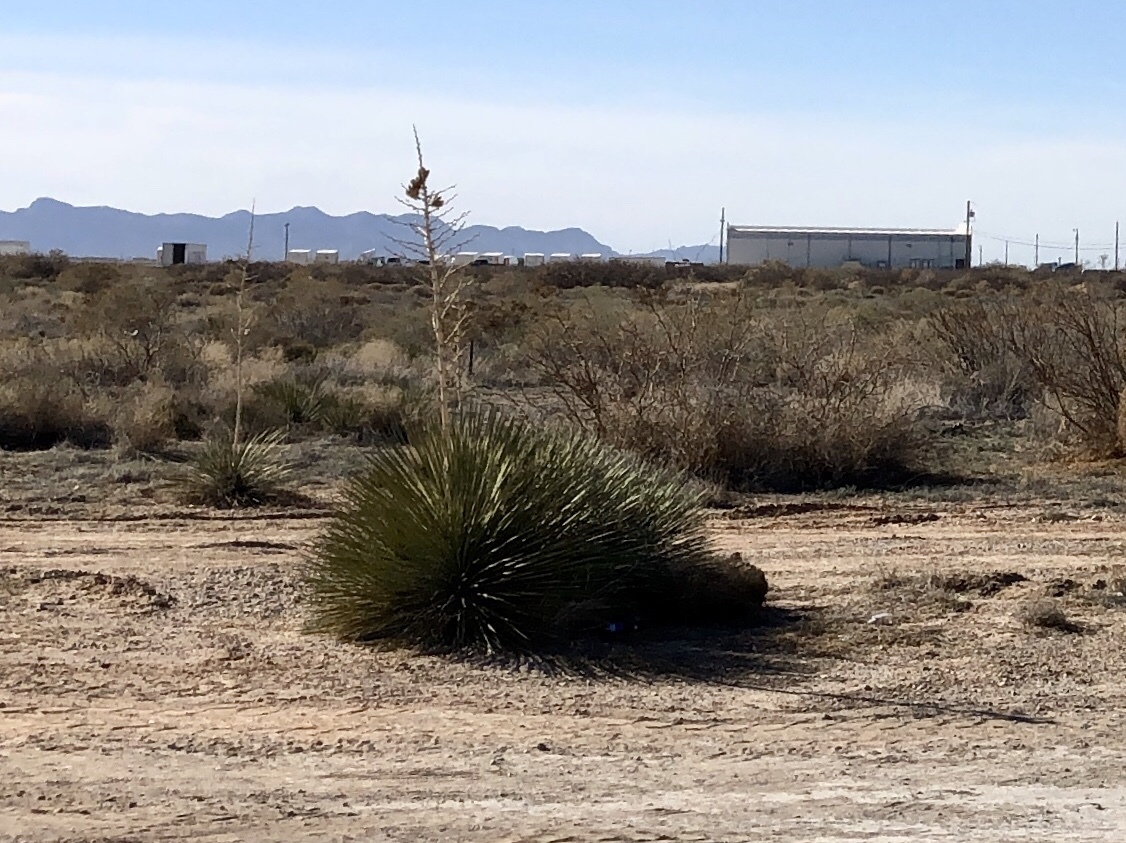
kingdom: Plantae
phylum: Tracheophyta
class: Liliopsida
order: Asparagales
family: Asparagaceae
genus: Yucca
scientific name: Yucca elata
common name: Palmella
